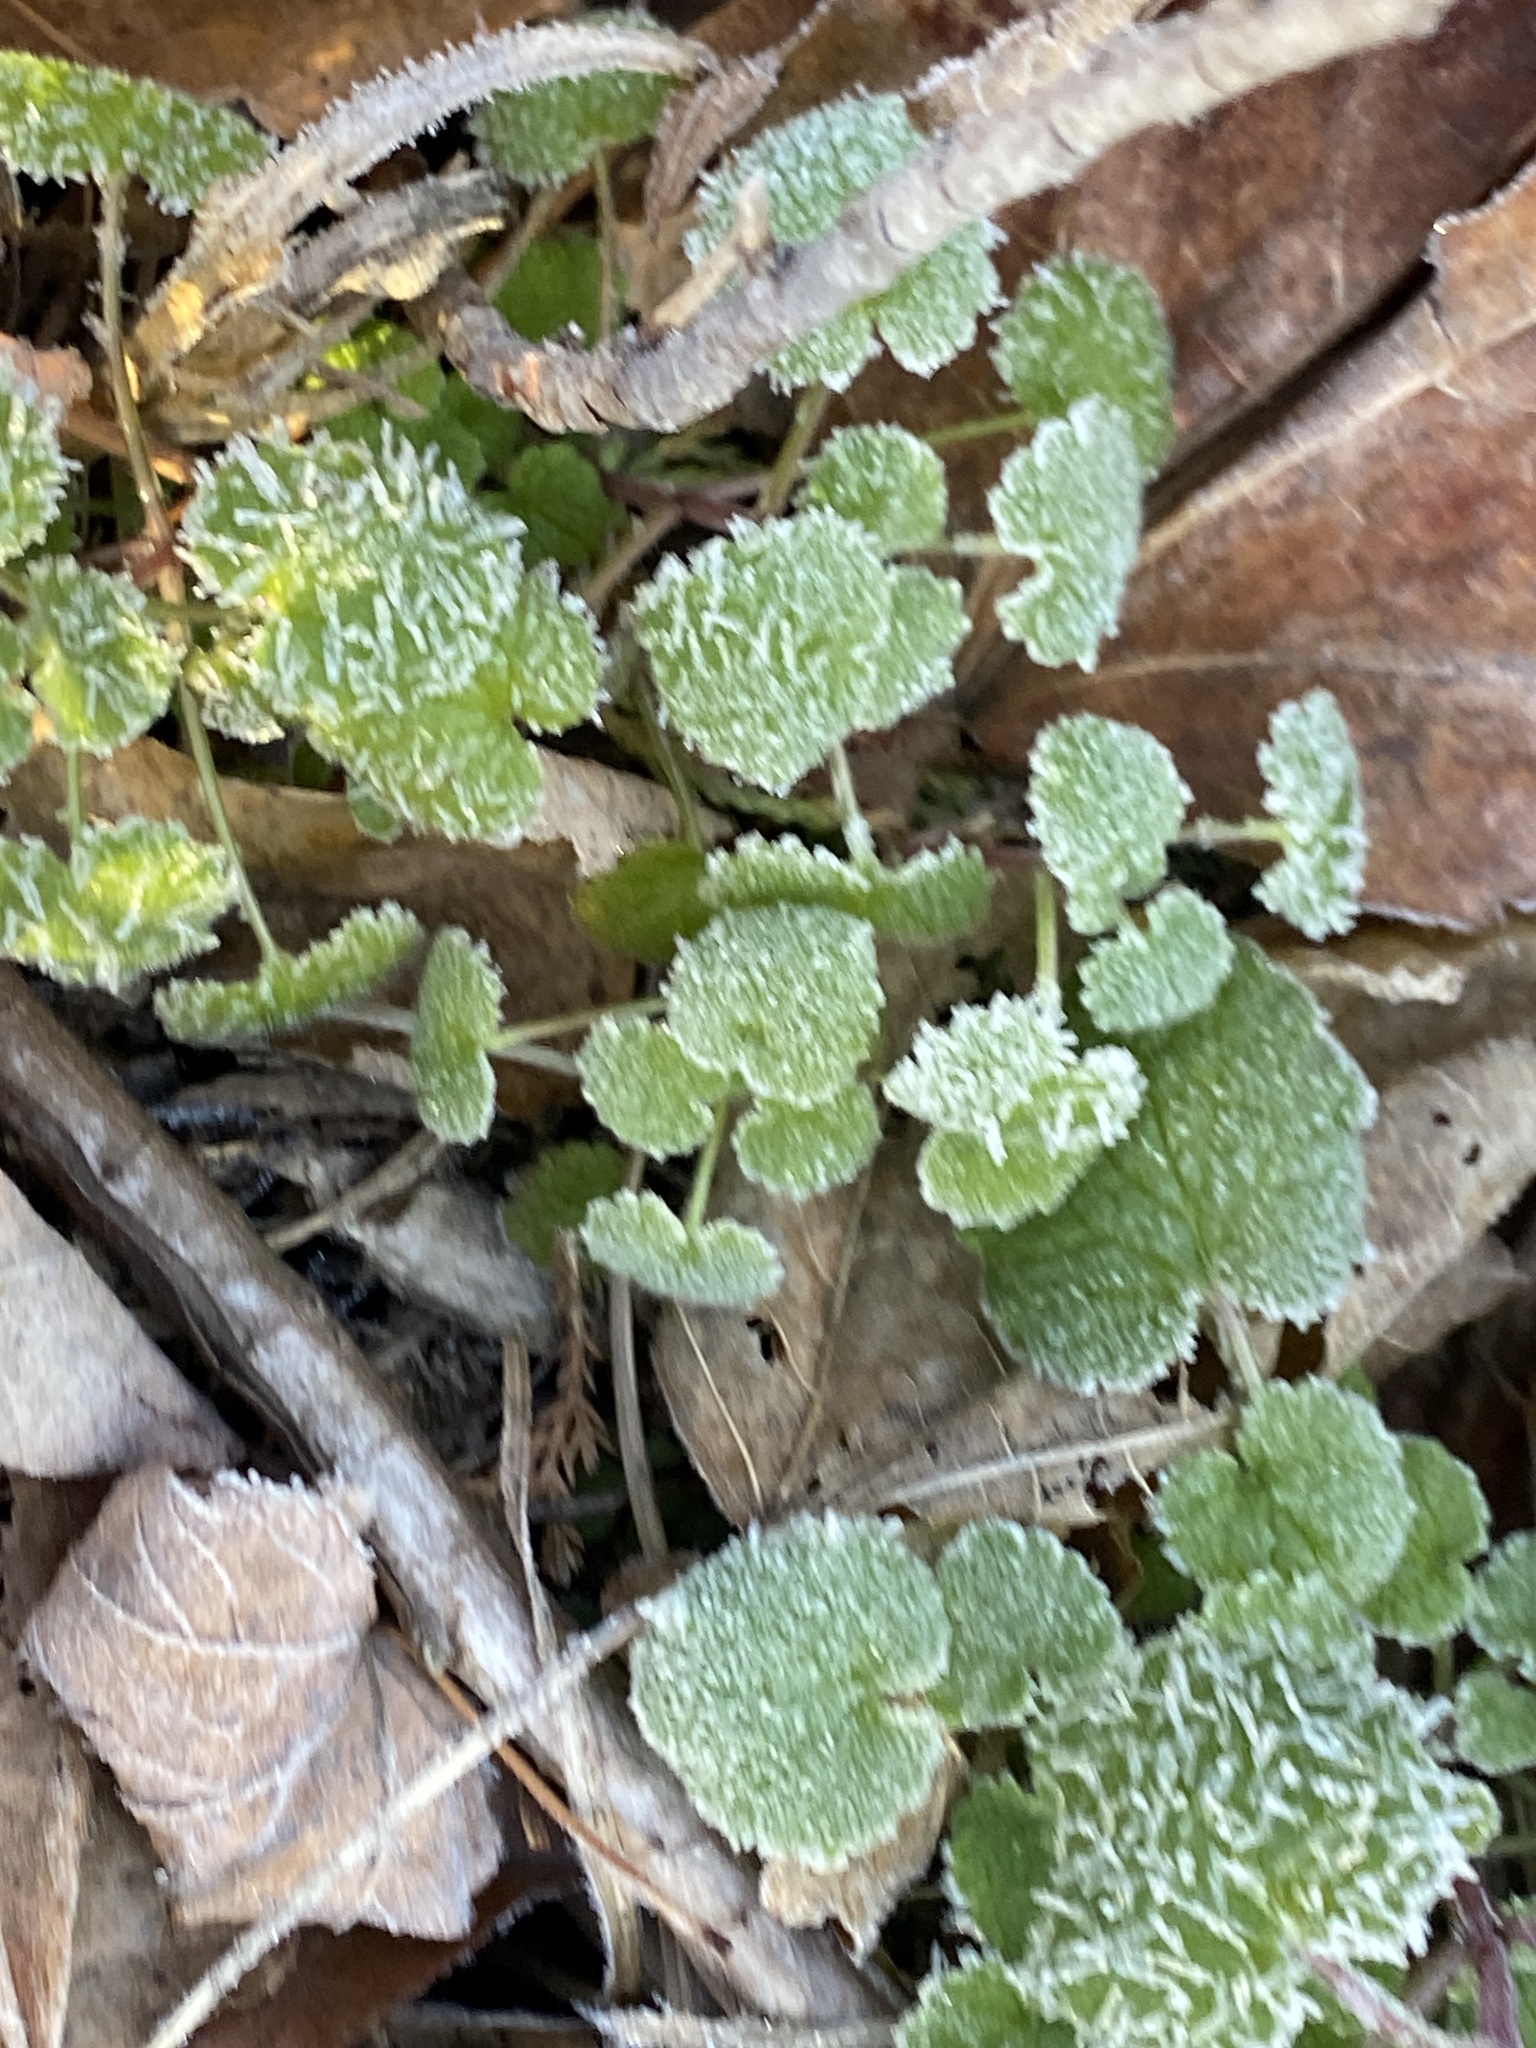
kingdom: Plantae
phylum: Tracheophyta
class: Magnoliopsida
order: Lamiales
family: Lamiaceae
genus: Lamium
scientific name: Lamium purpureum
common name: Red dead-nettle
